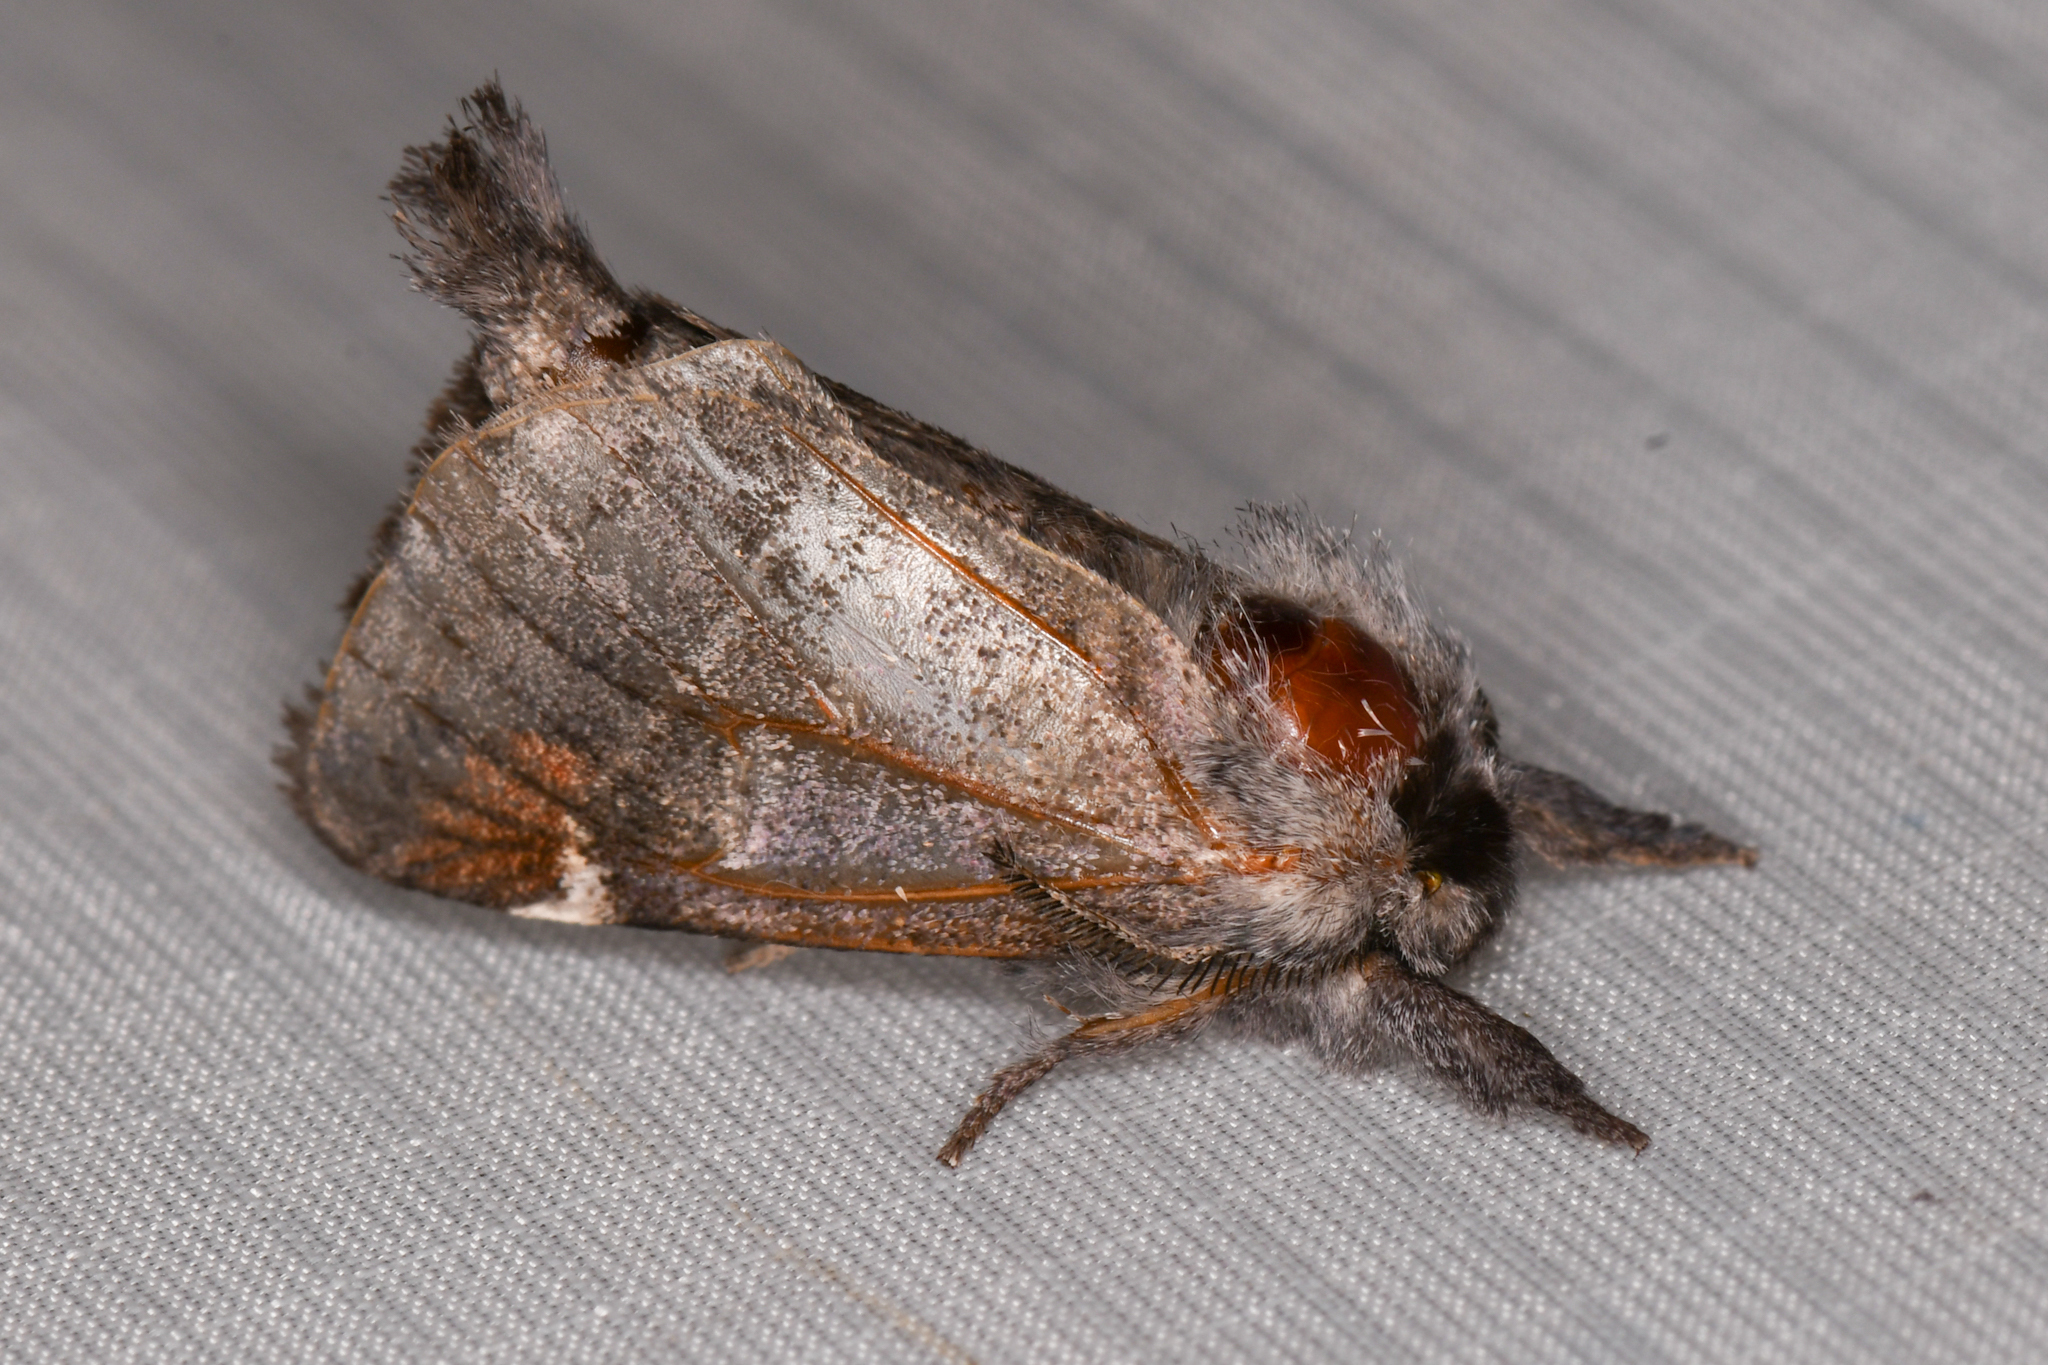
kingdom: Animalia
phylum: Arthropoda
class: Insecta
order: Lepidoptera
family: Notodontidae
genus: Clostera
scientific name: Clostera apicalis
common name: Apical prominent
